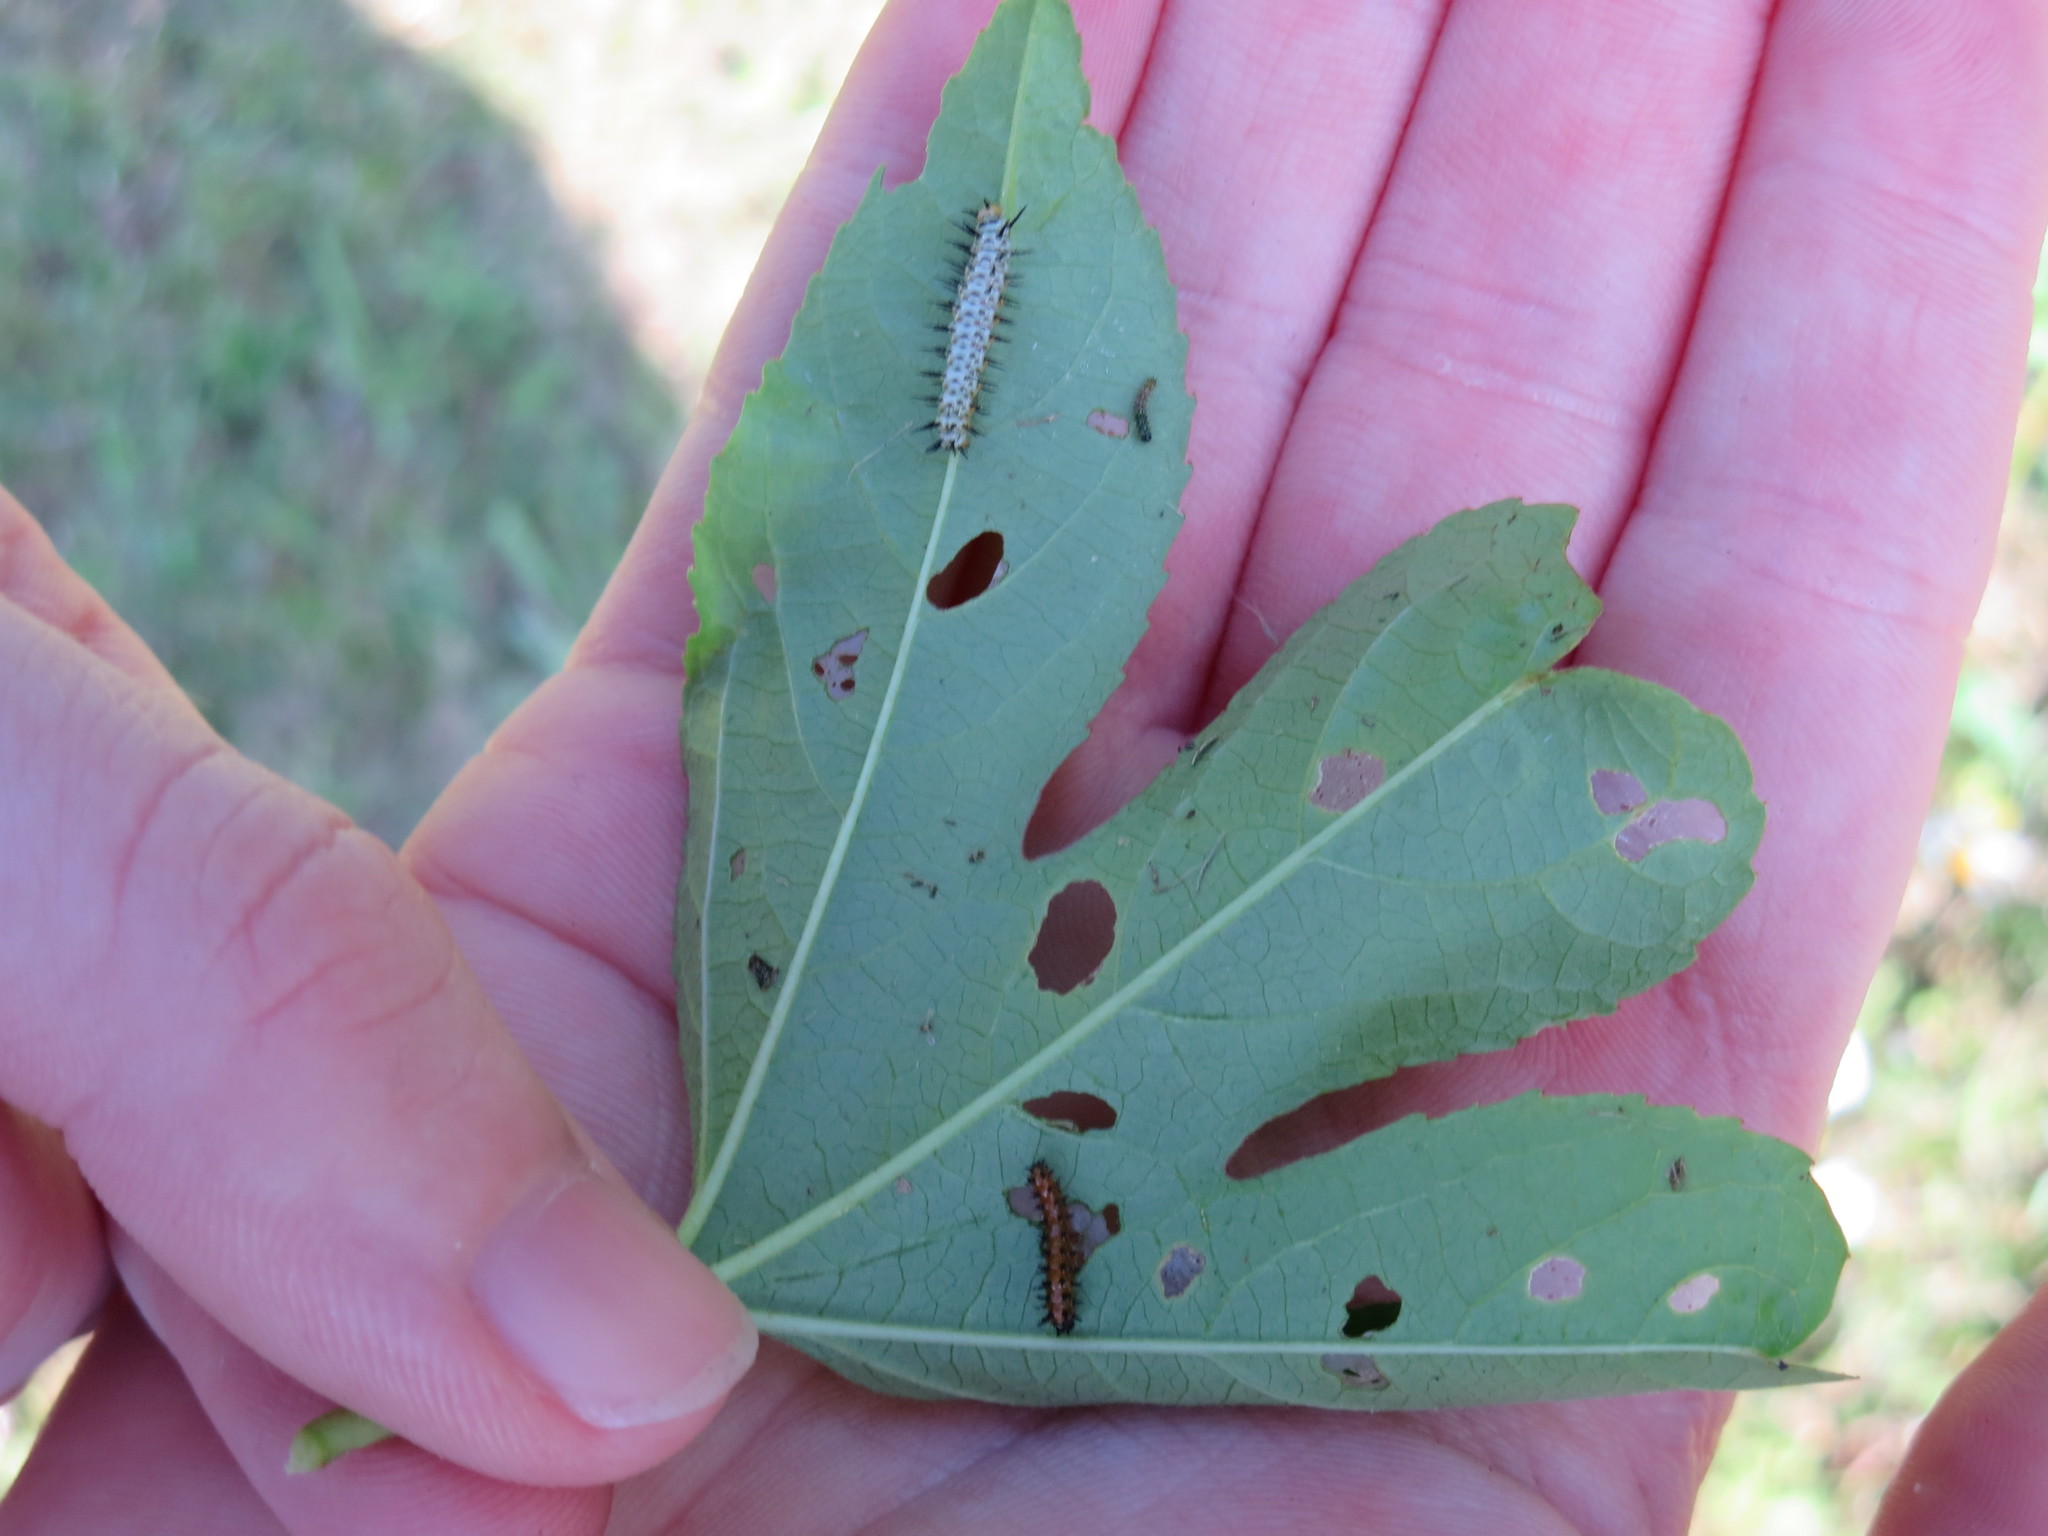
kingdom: Animalia
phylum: Arthropoda
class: Insecta
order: Lepidoptera
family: Nymphalidae
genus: Dione
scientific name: Dione vanillae
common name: Gulf fritillary
